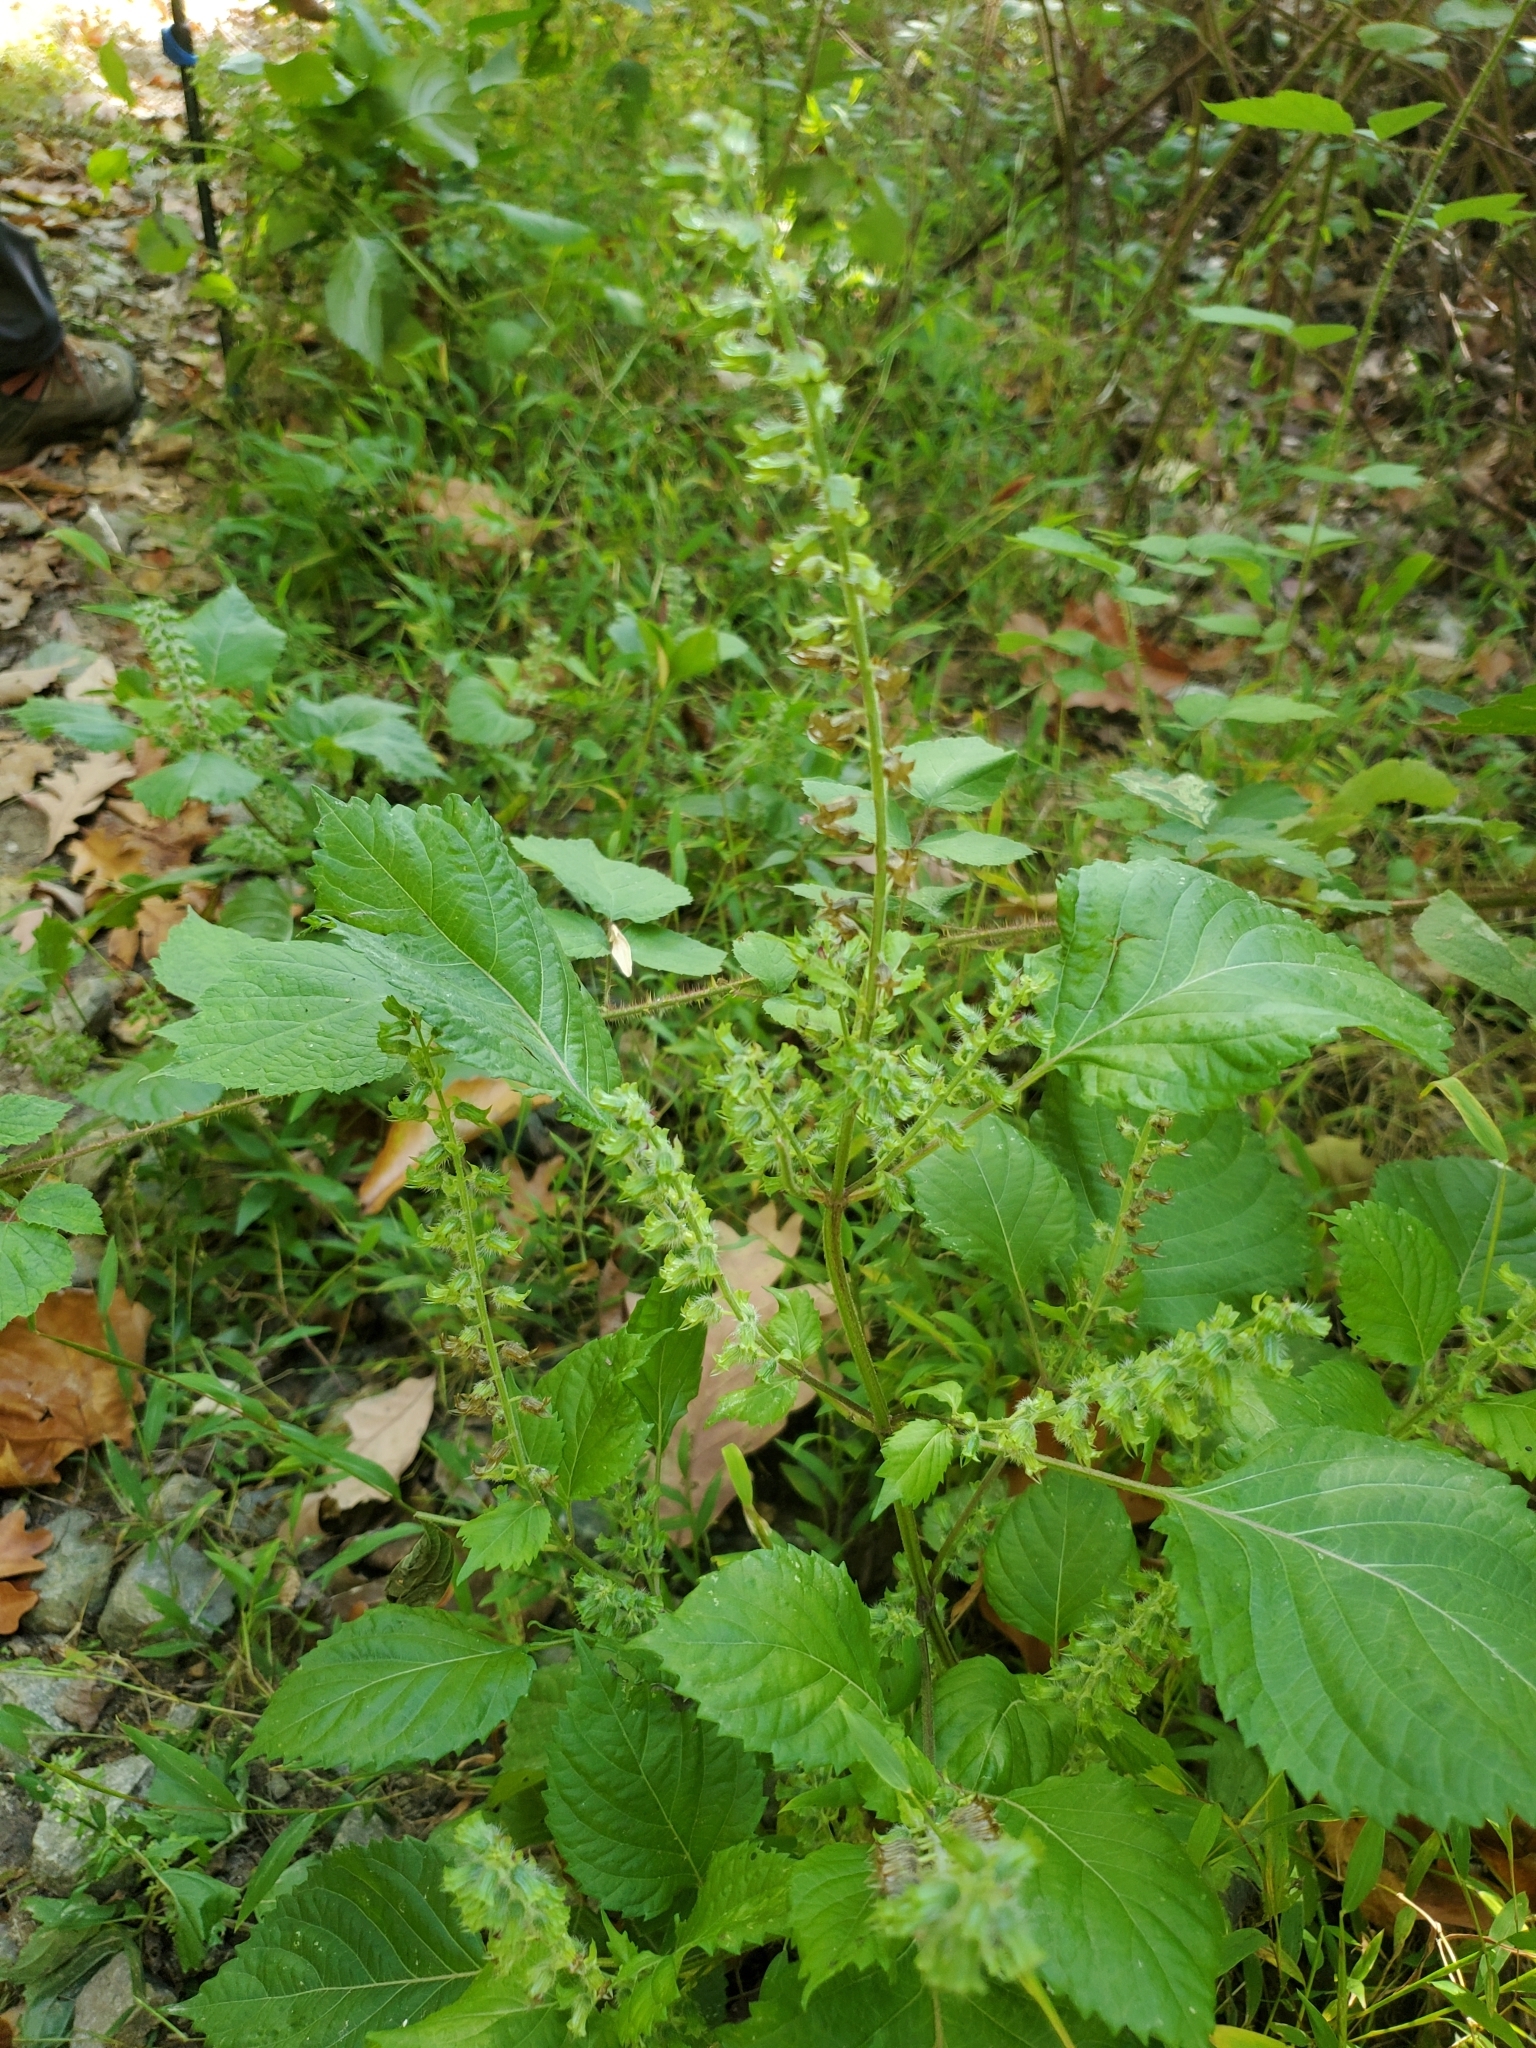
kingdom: Plantae
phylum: Tracheophyta
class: Magnoliopsida
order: Lamiales
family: Lamiaceae
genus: Perilla
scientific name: Perilla frutescens
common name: Perilla
